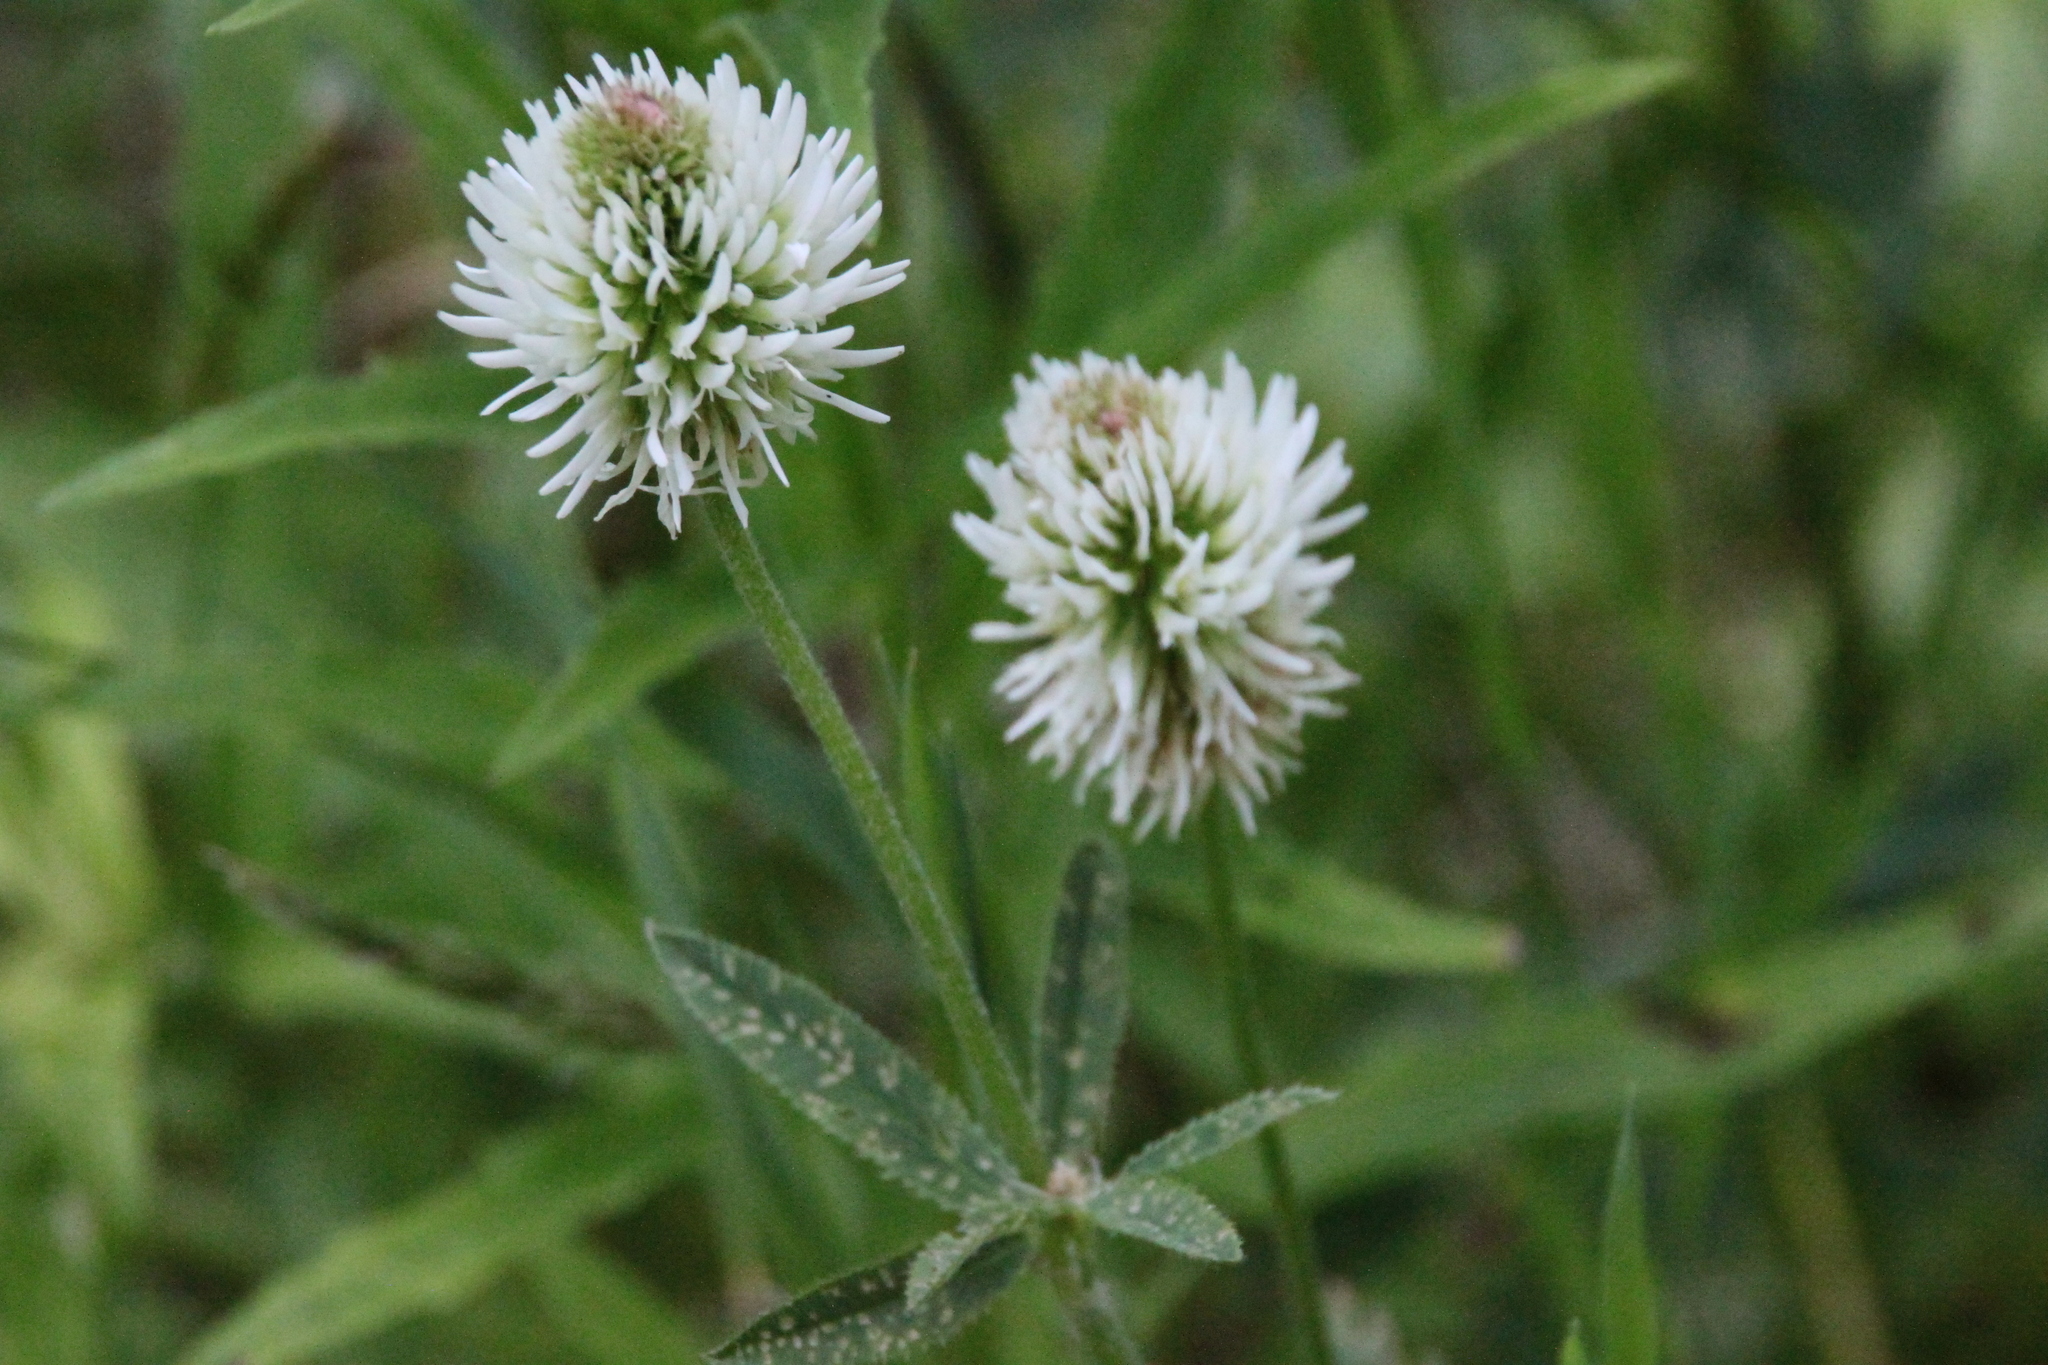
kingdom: Plantae
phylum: Tracheophyta
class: Magnoliopsida
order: Fabales
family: Fabaceae
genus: Trifolium
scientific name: Trifolium montanum
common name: Mountain clover
